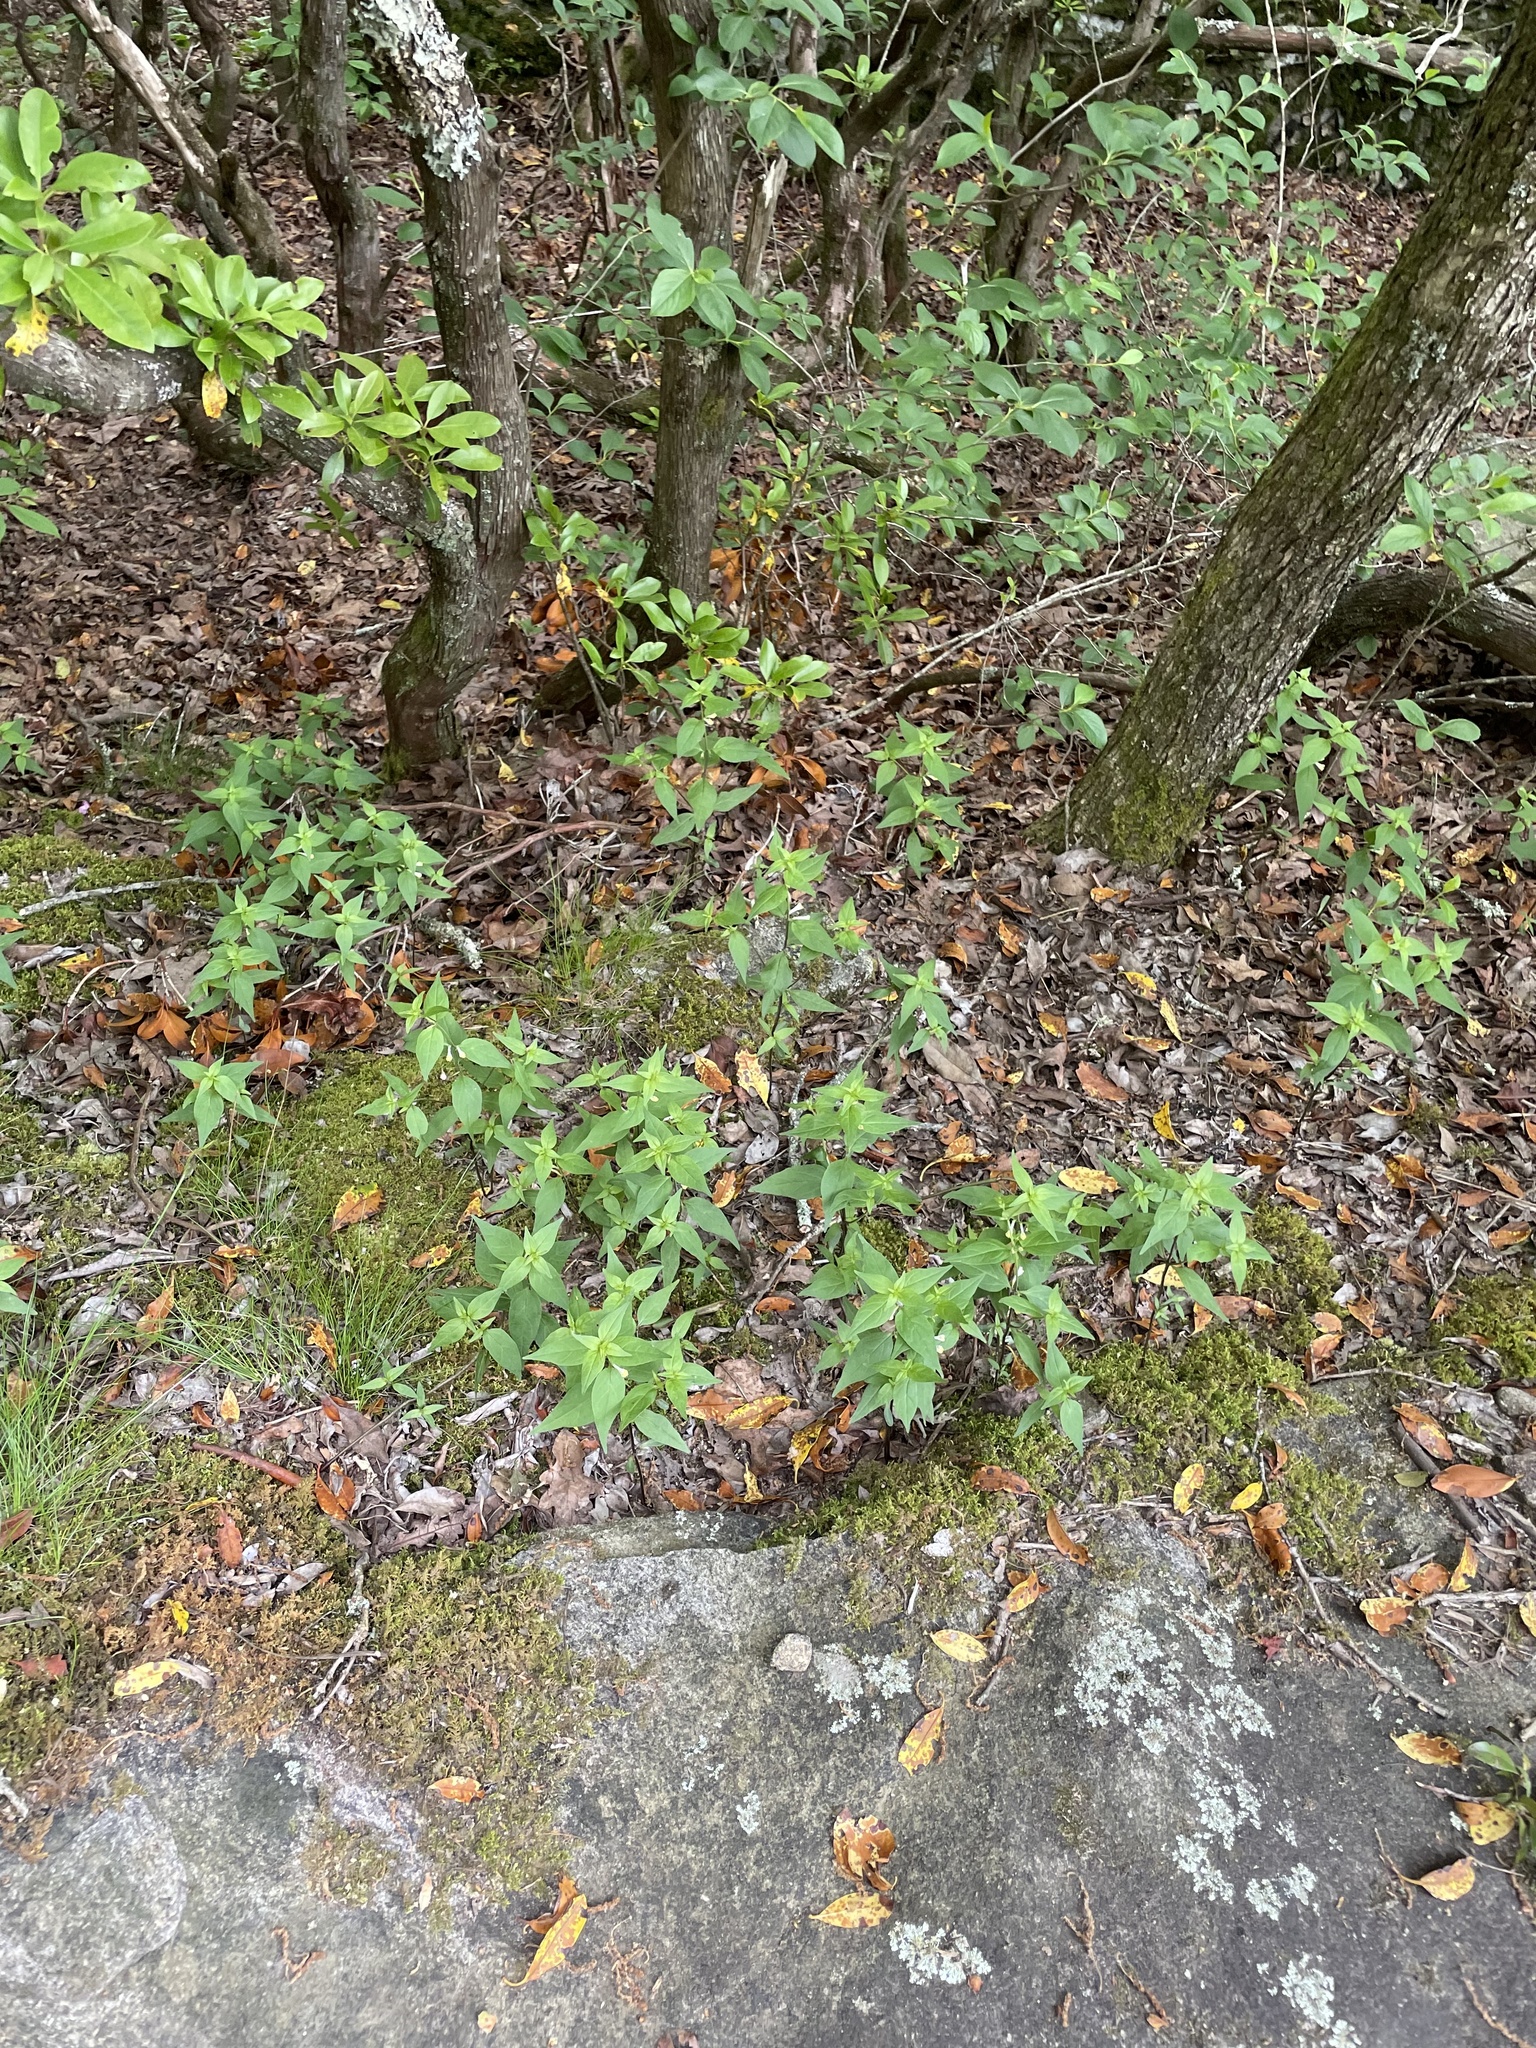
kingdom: Plantae
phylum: Tracheophyta
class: Magnoliopsida
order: Lamiales
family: Orobanchaceae
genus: Melampyrum
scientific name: Melampyrum lineare
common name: American cow-wheat
